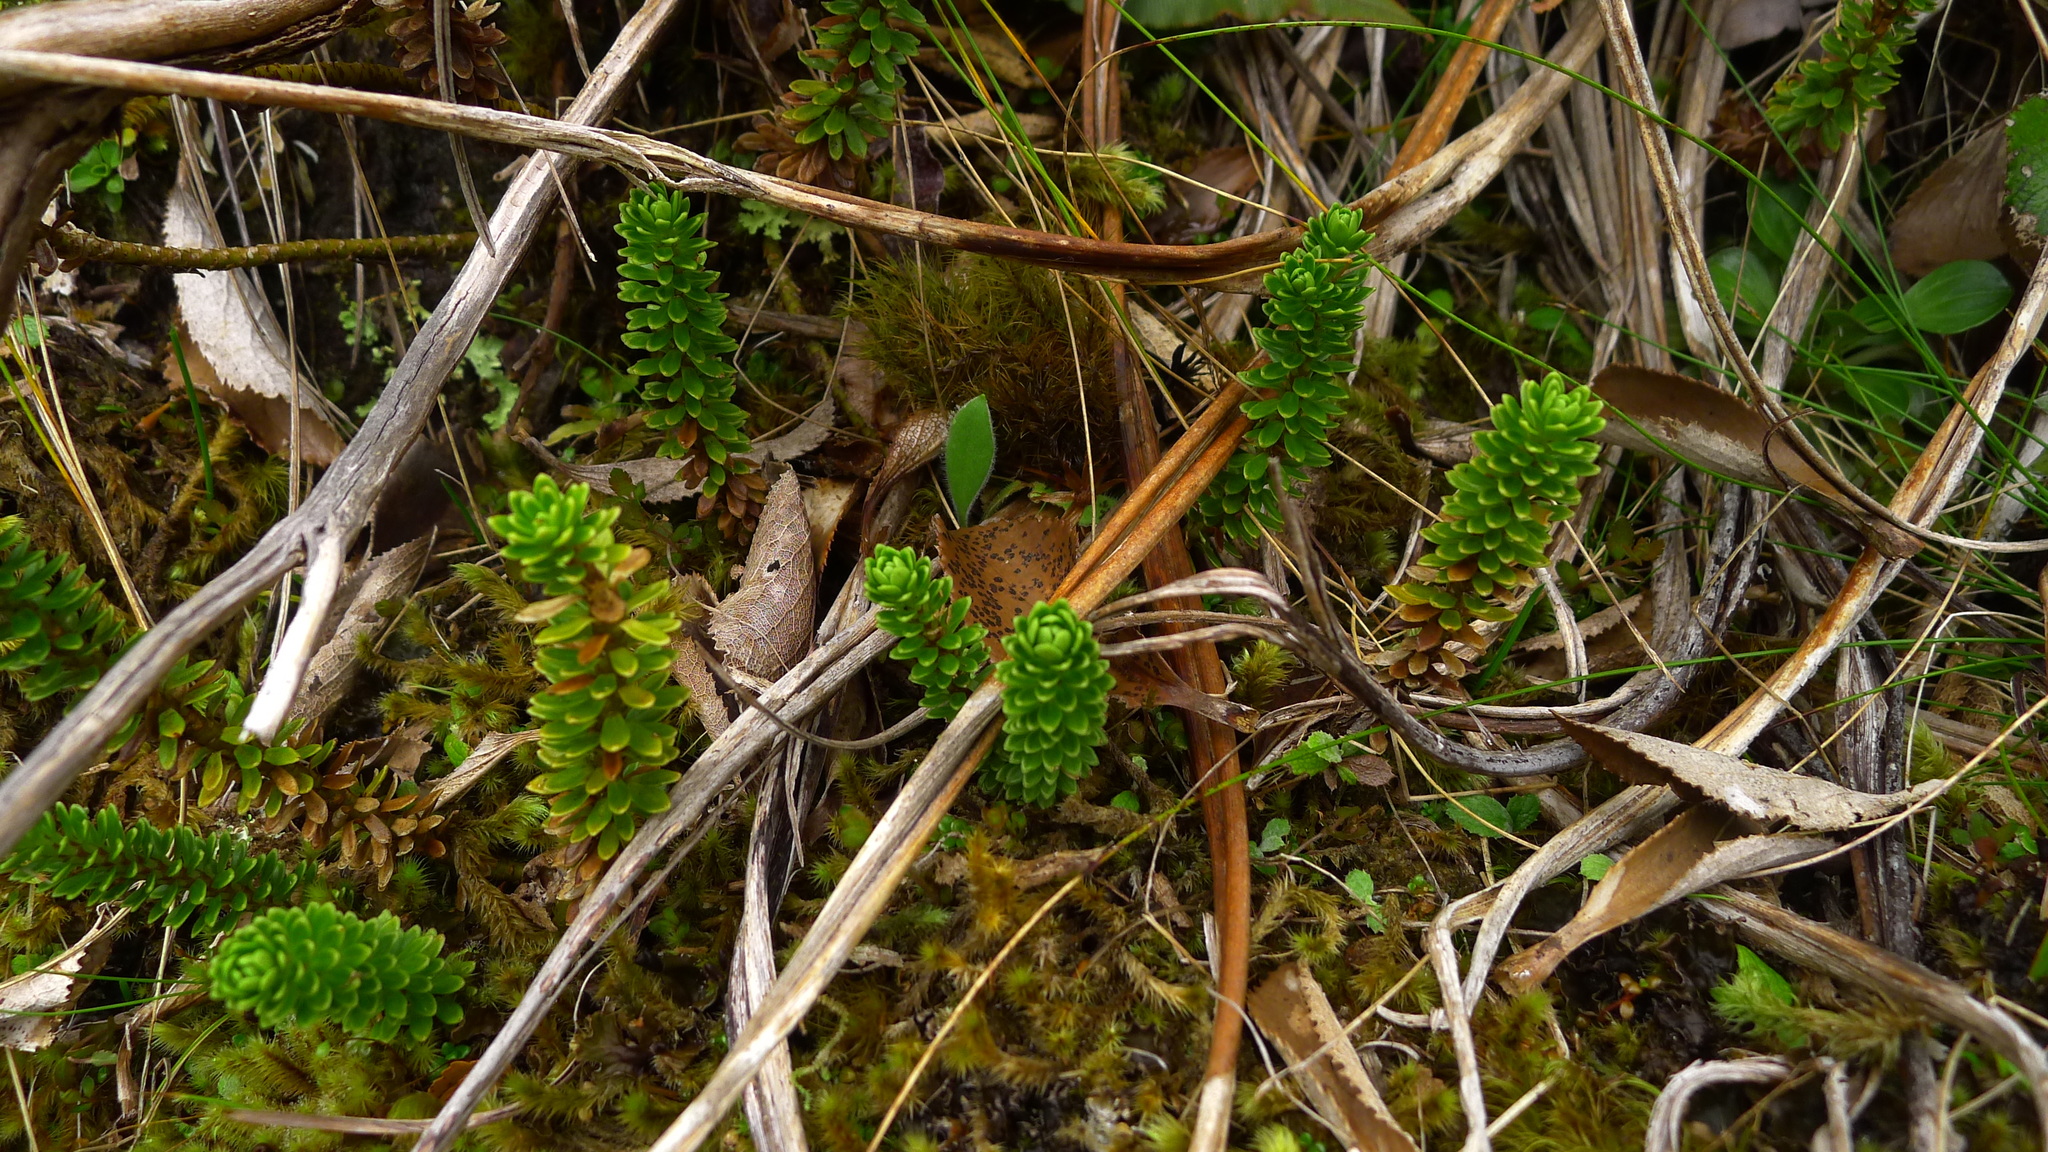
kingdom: Plantae
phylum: Tracheophyta
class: Magnoliopsida
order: Asterales
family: Stylidiaceae
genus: Forstera
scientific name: Forstera mackayi
